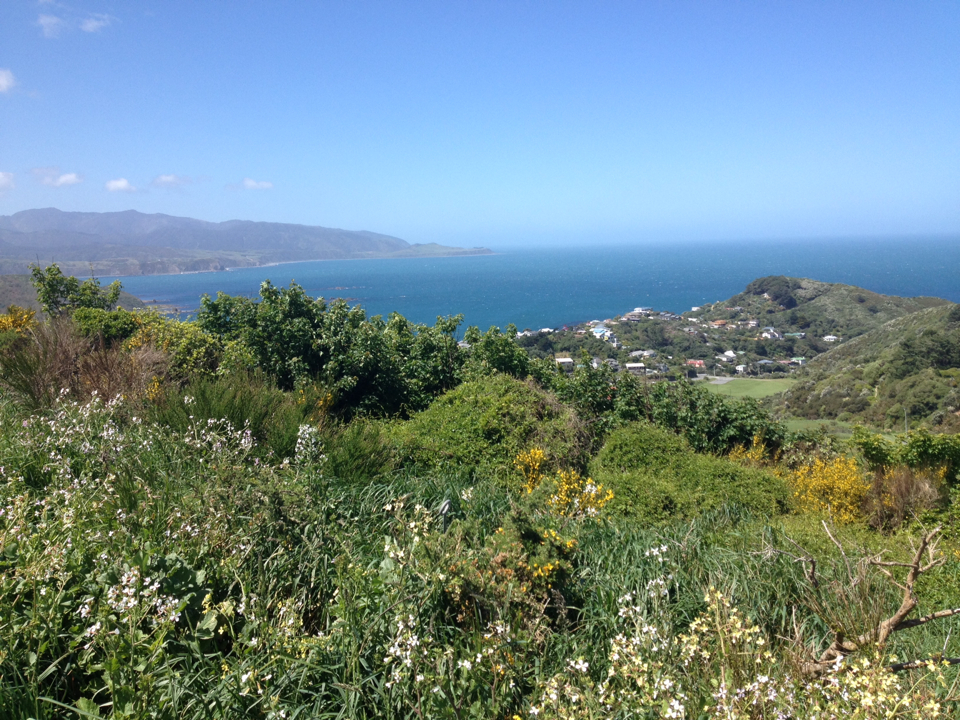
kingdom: Plantae
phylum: Tracheophyta
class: Magnoliopsida
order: Sapindales
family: Sapindaceae
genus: Acer
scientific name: Acer pseudoplatanus
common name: Sycamore
